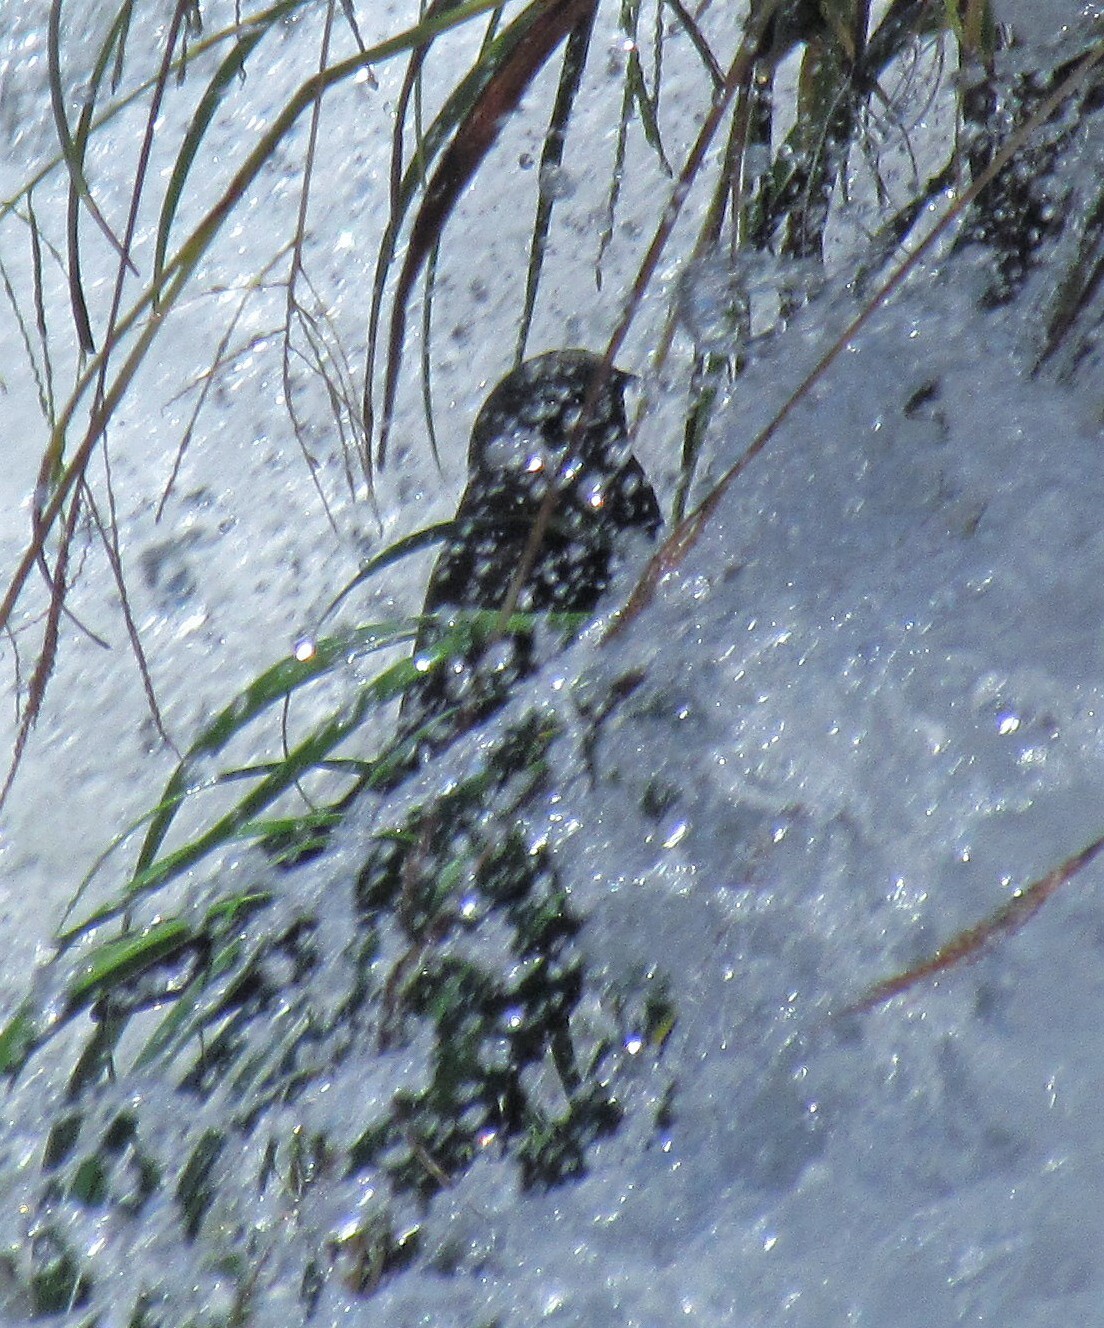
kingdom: Animalia
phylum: Chordata
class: Aves
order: Apodiformes
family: Apodidae
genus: Cypseloides
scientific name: Cypseloides senex
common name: Great dusky swift
